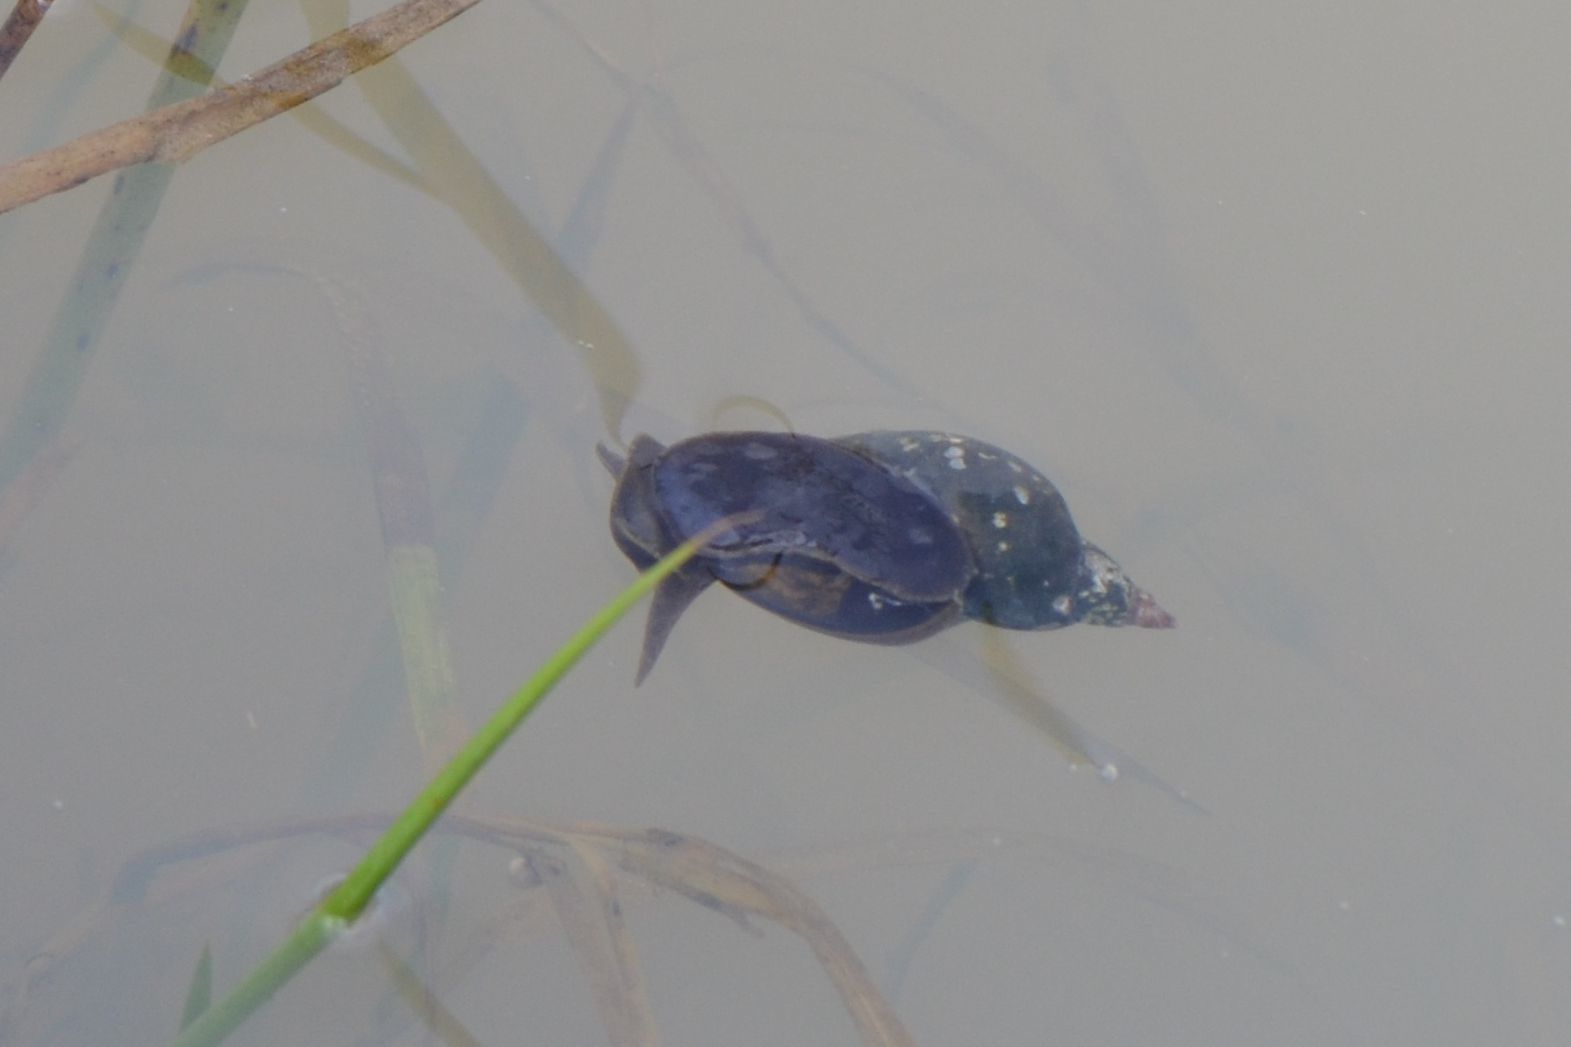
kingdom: Animalia
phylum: Mollusca
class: Gastropoda
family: Lymnaeidae
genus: Lymnaea
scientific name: Lymnaea stagnalis
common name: Great pond snail
